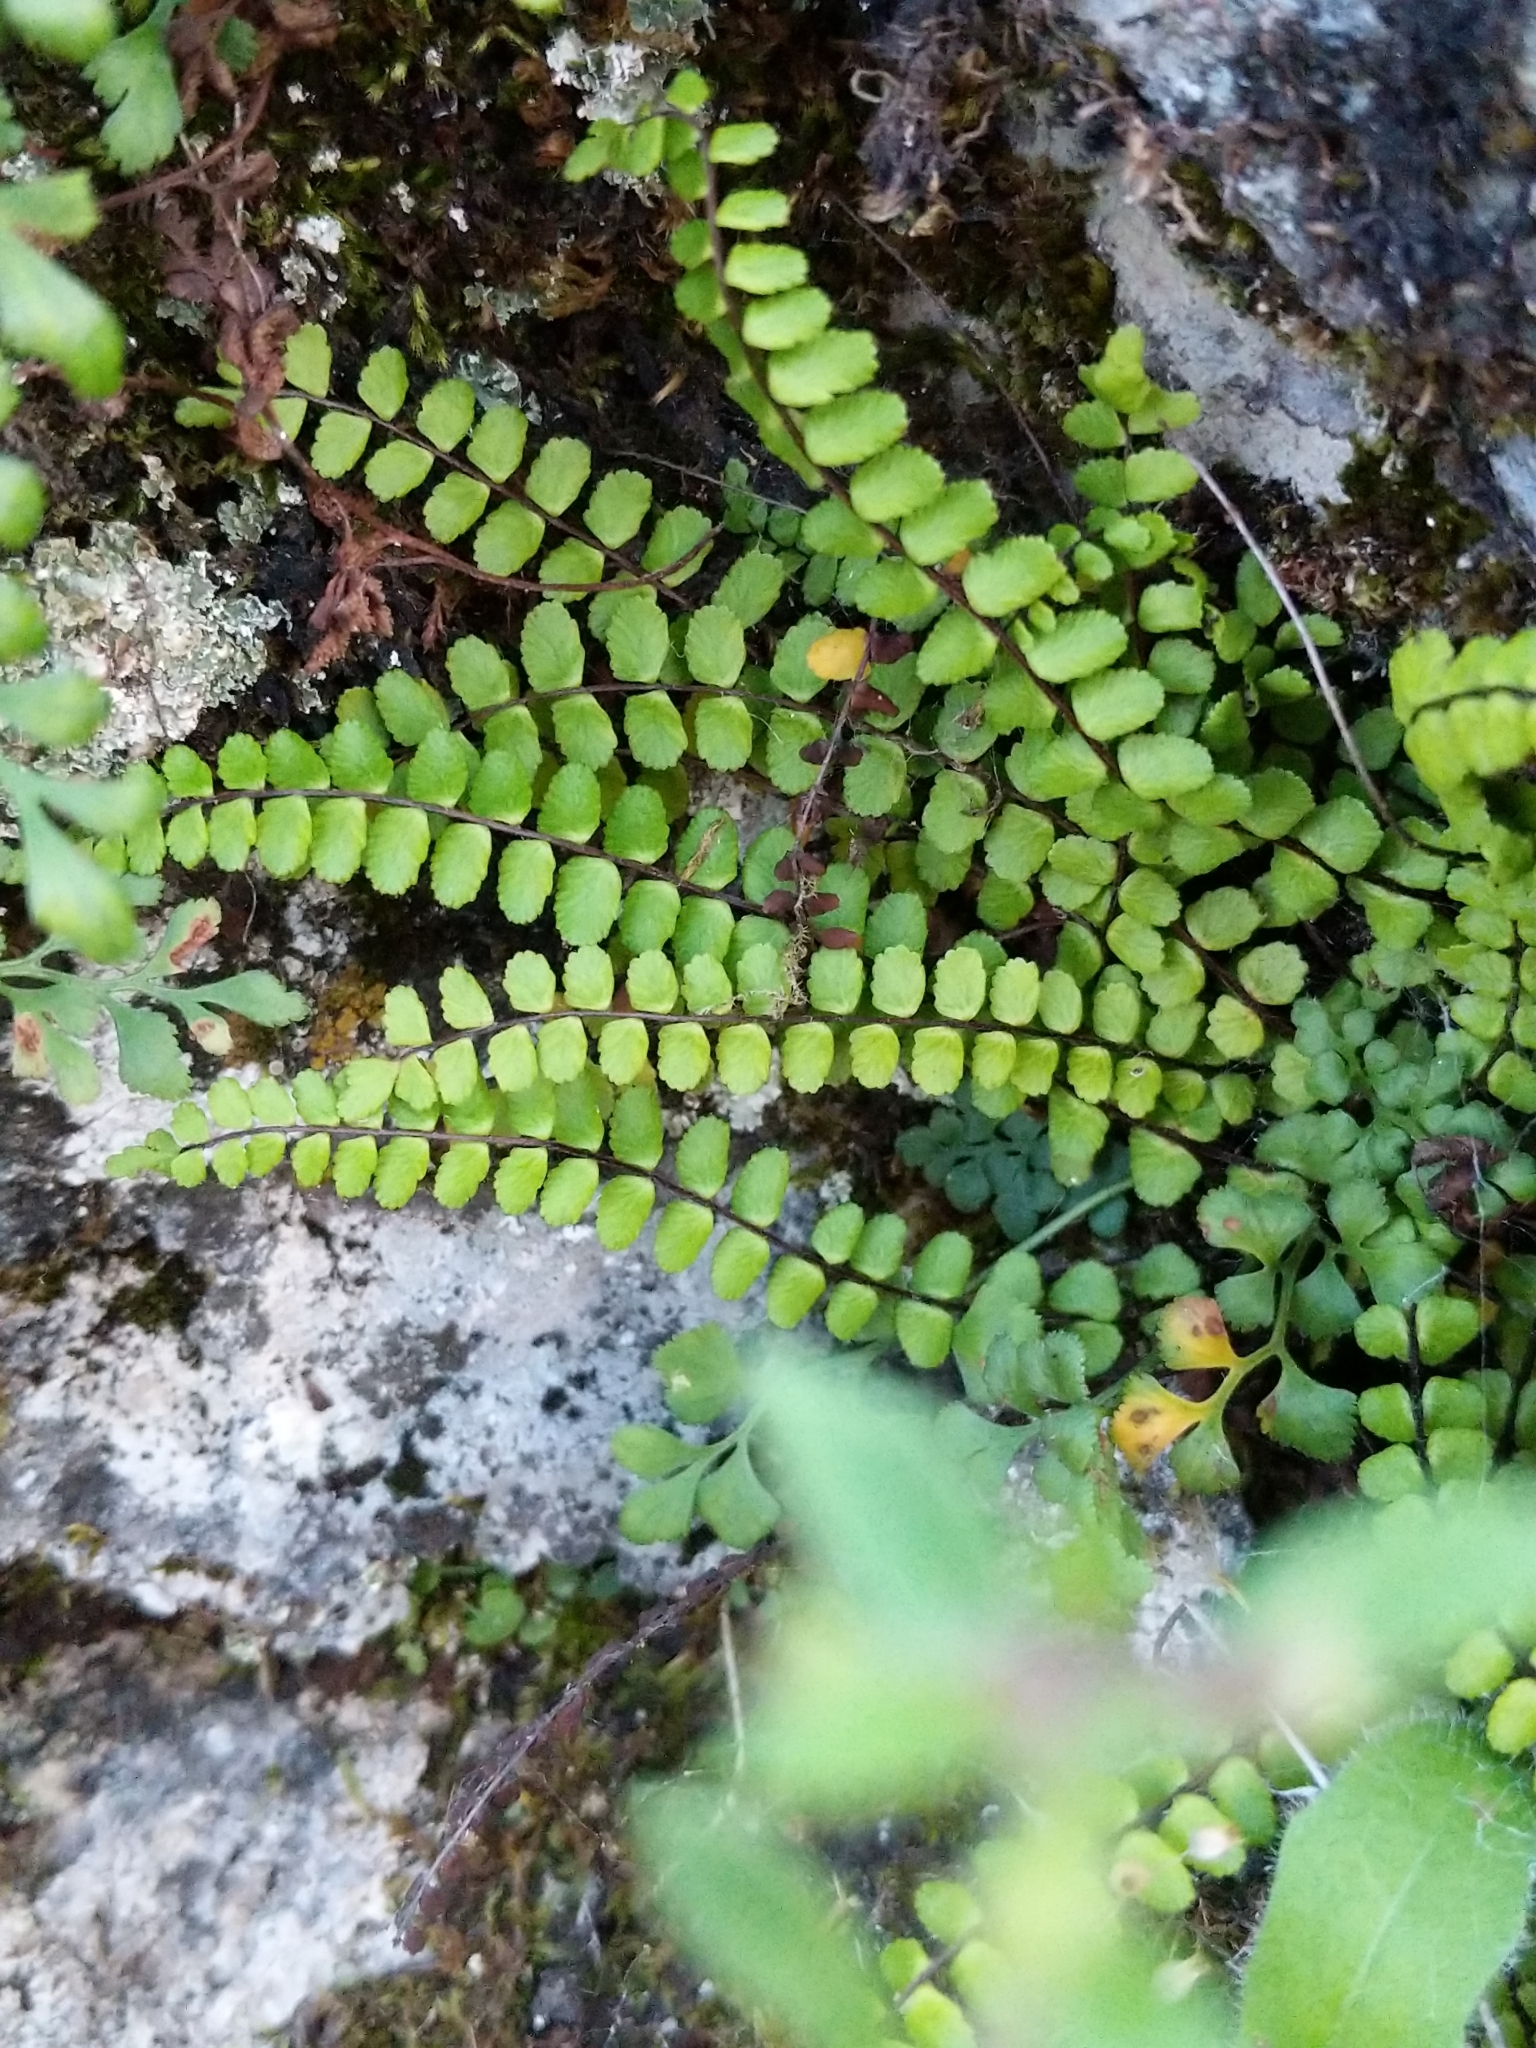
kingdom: Plantae
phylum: Tracheophyta
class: Polypodiopsida
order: Polypodiales
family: Aspleniaceae
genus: Asplenium
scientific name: Asplenium trichomanes
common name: Maidenhair spleenwort
